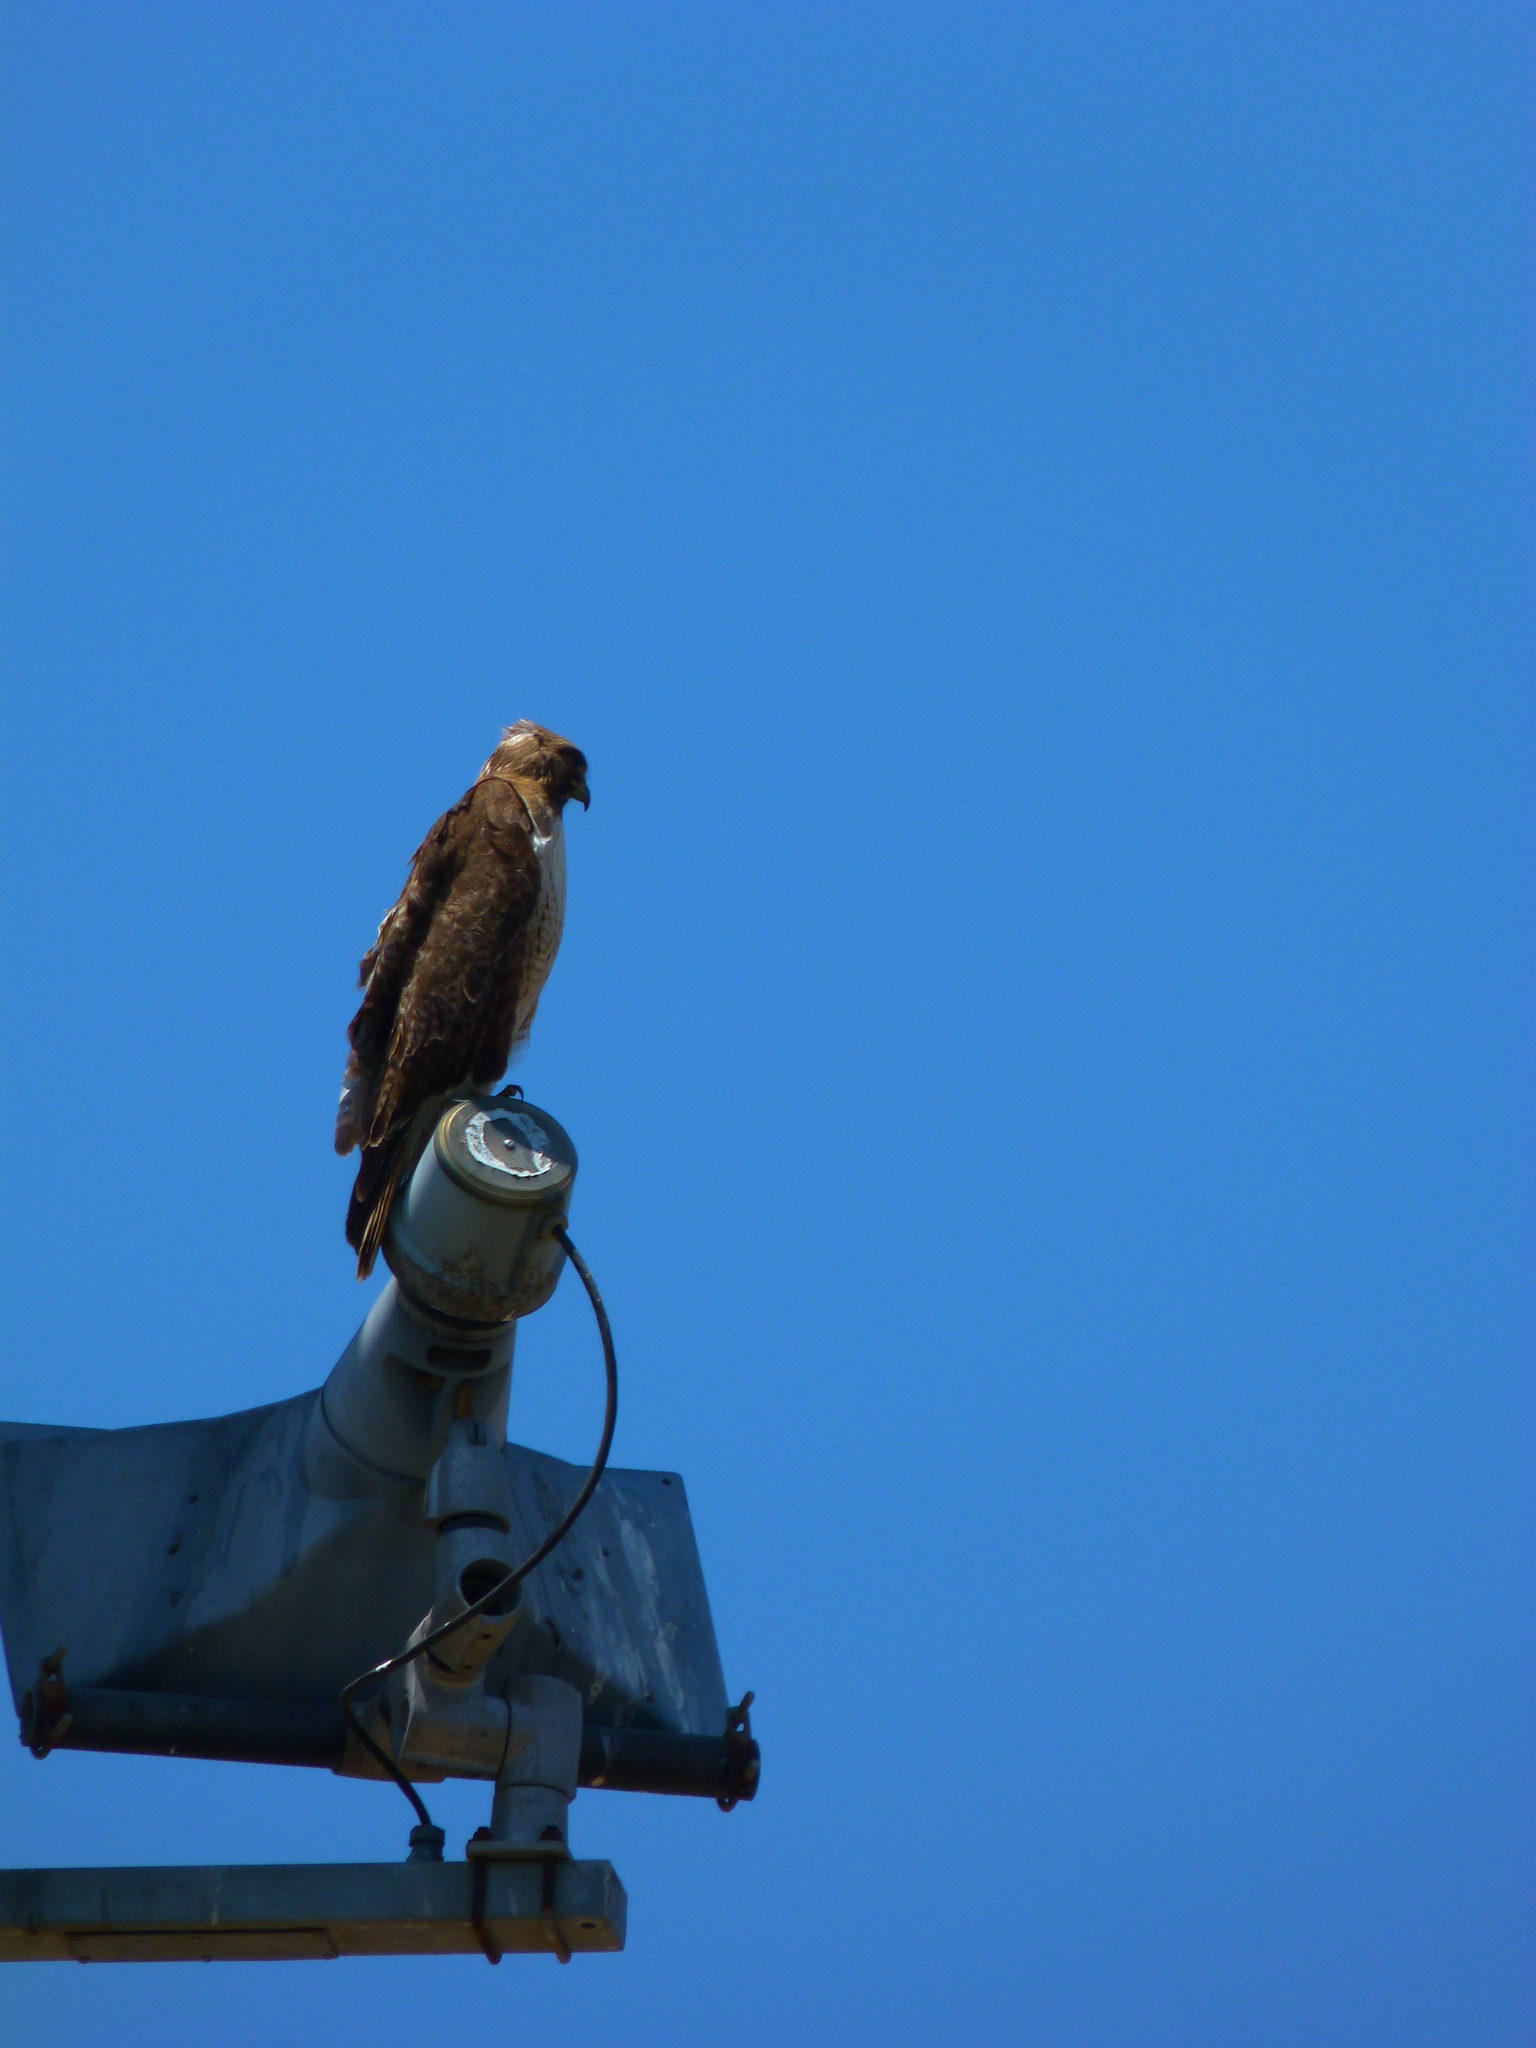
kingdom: Animalia
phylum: Chordata
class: Aves
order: Accipitriformes
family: Accipitridae
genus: Buteo
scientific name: Buteo jamaicensis
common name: Red-tailed hawk
